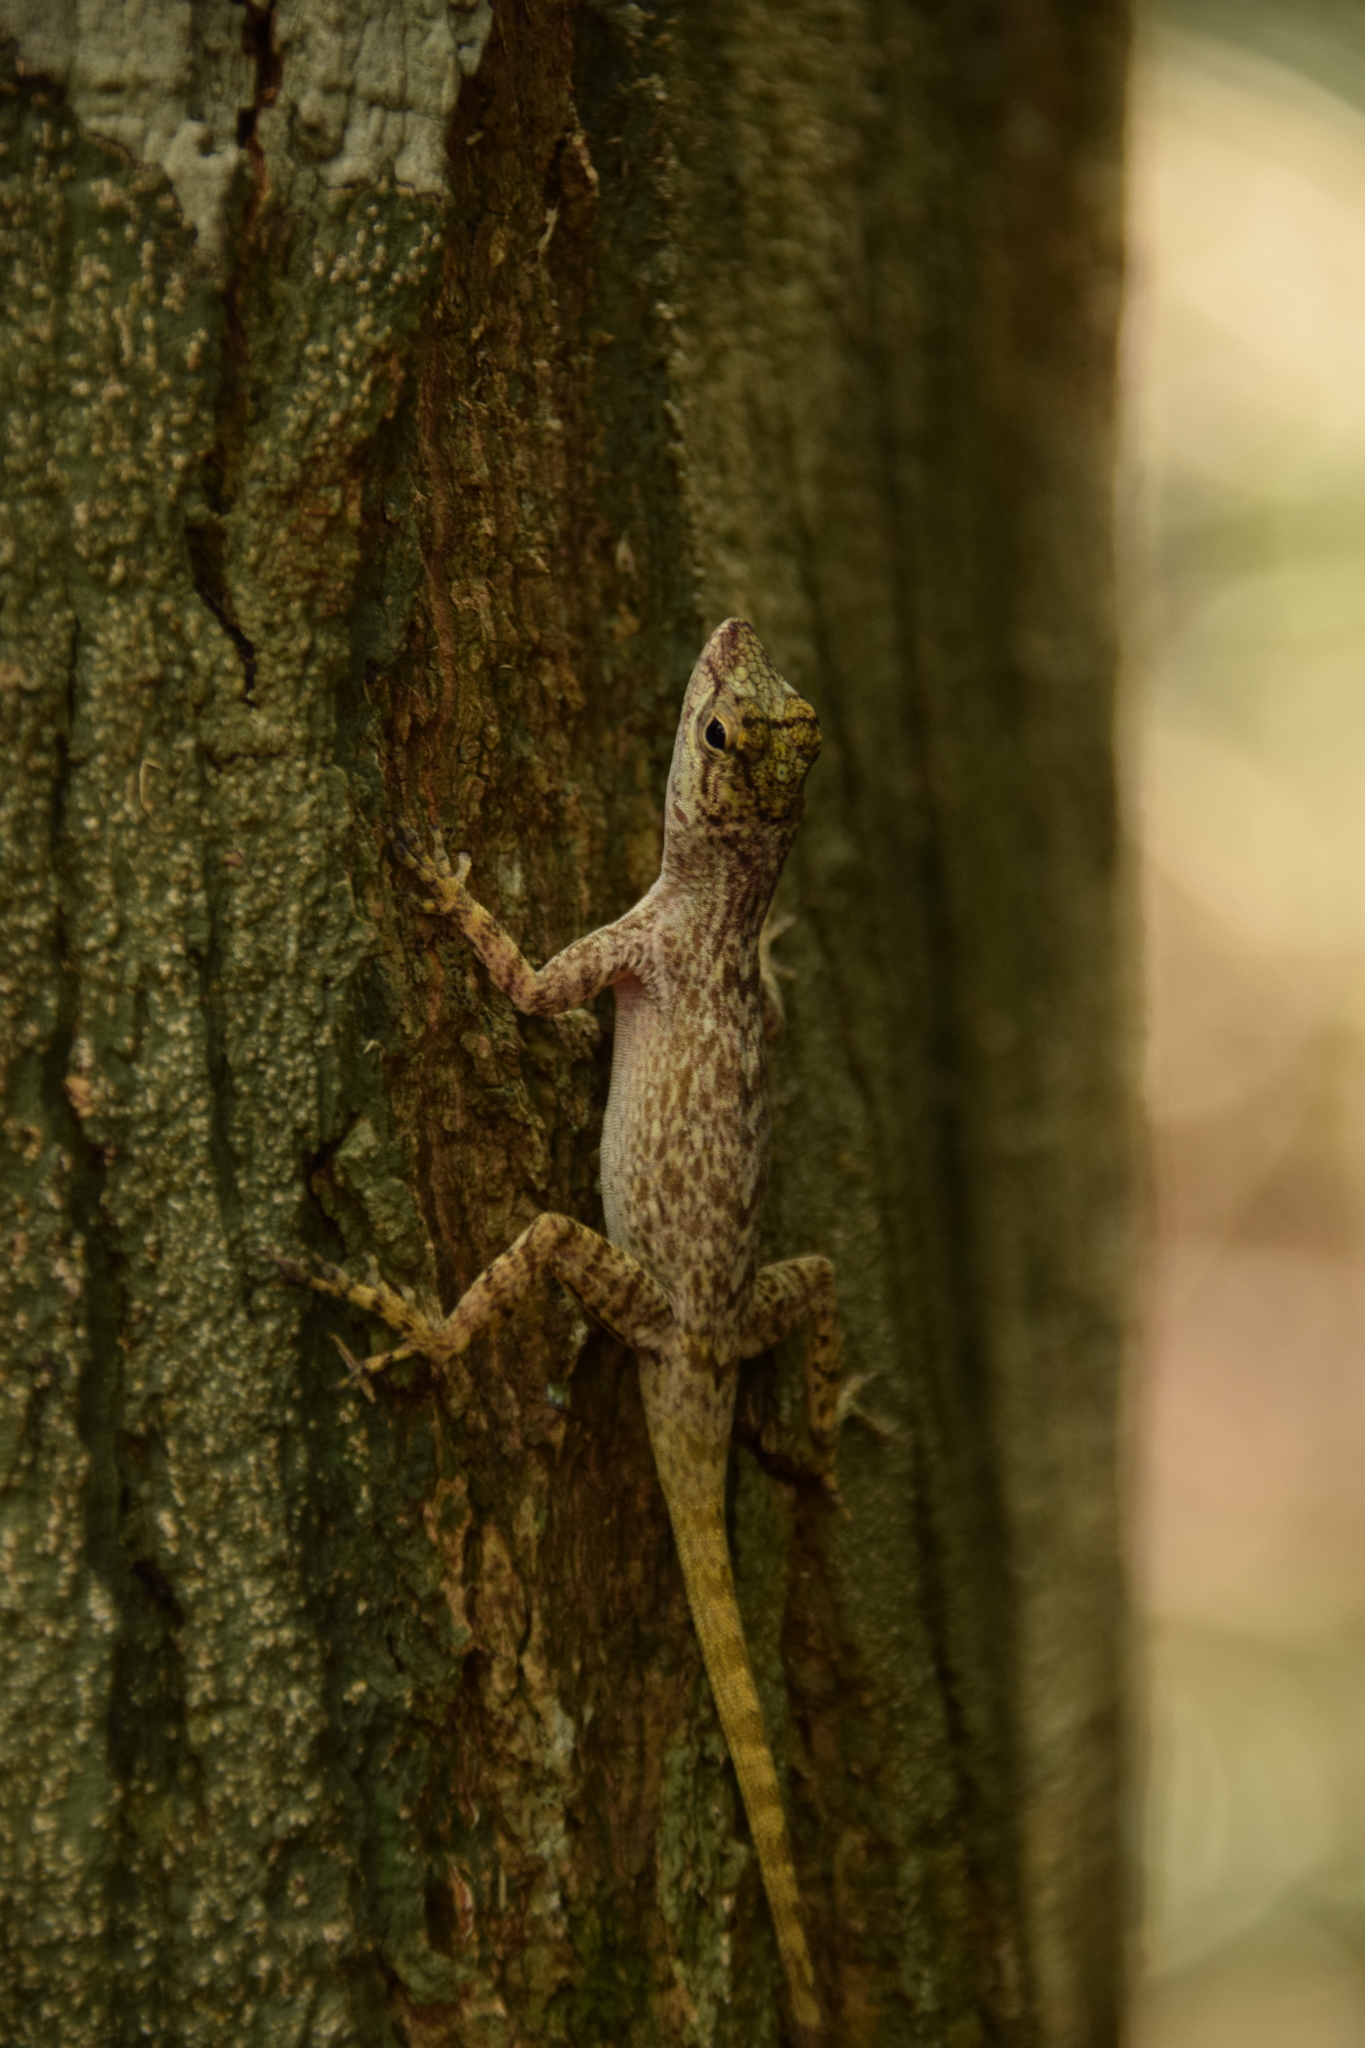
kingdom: Animalia
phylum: Chordata
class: Squamata
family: Dactyloidae
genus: Anolis
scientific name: Anolis distichus
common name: Bark anole
